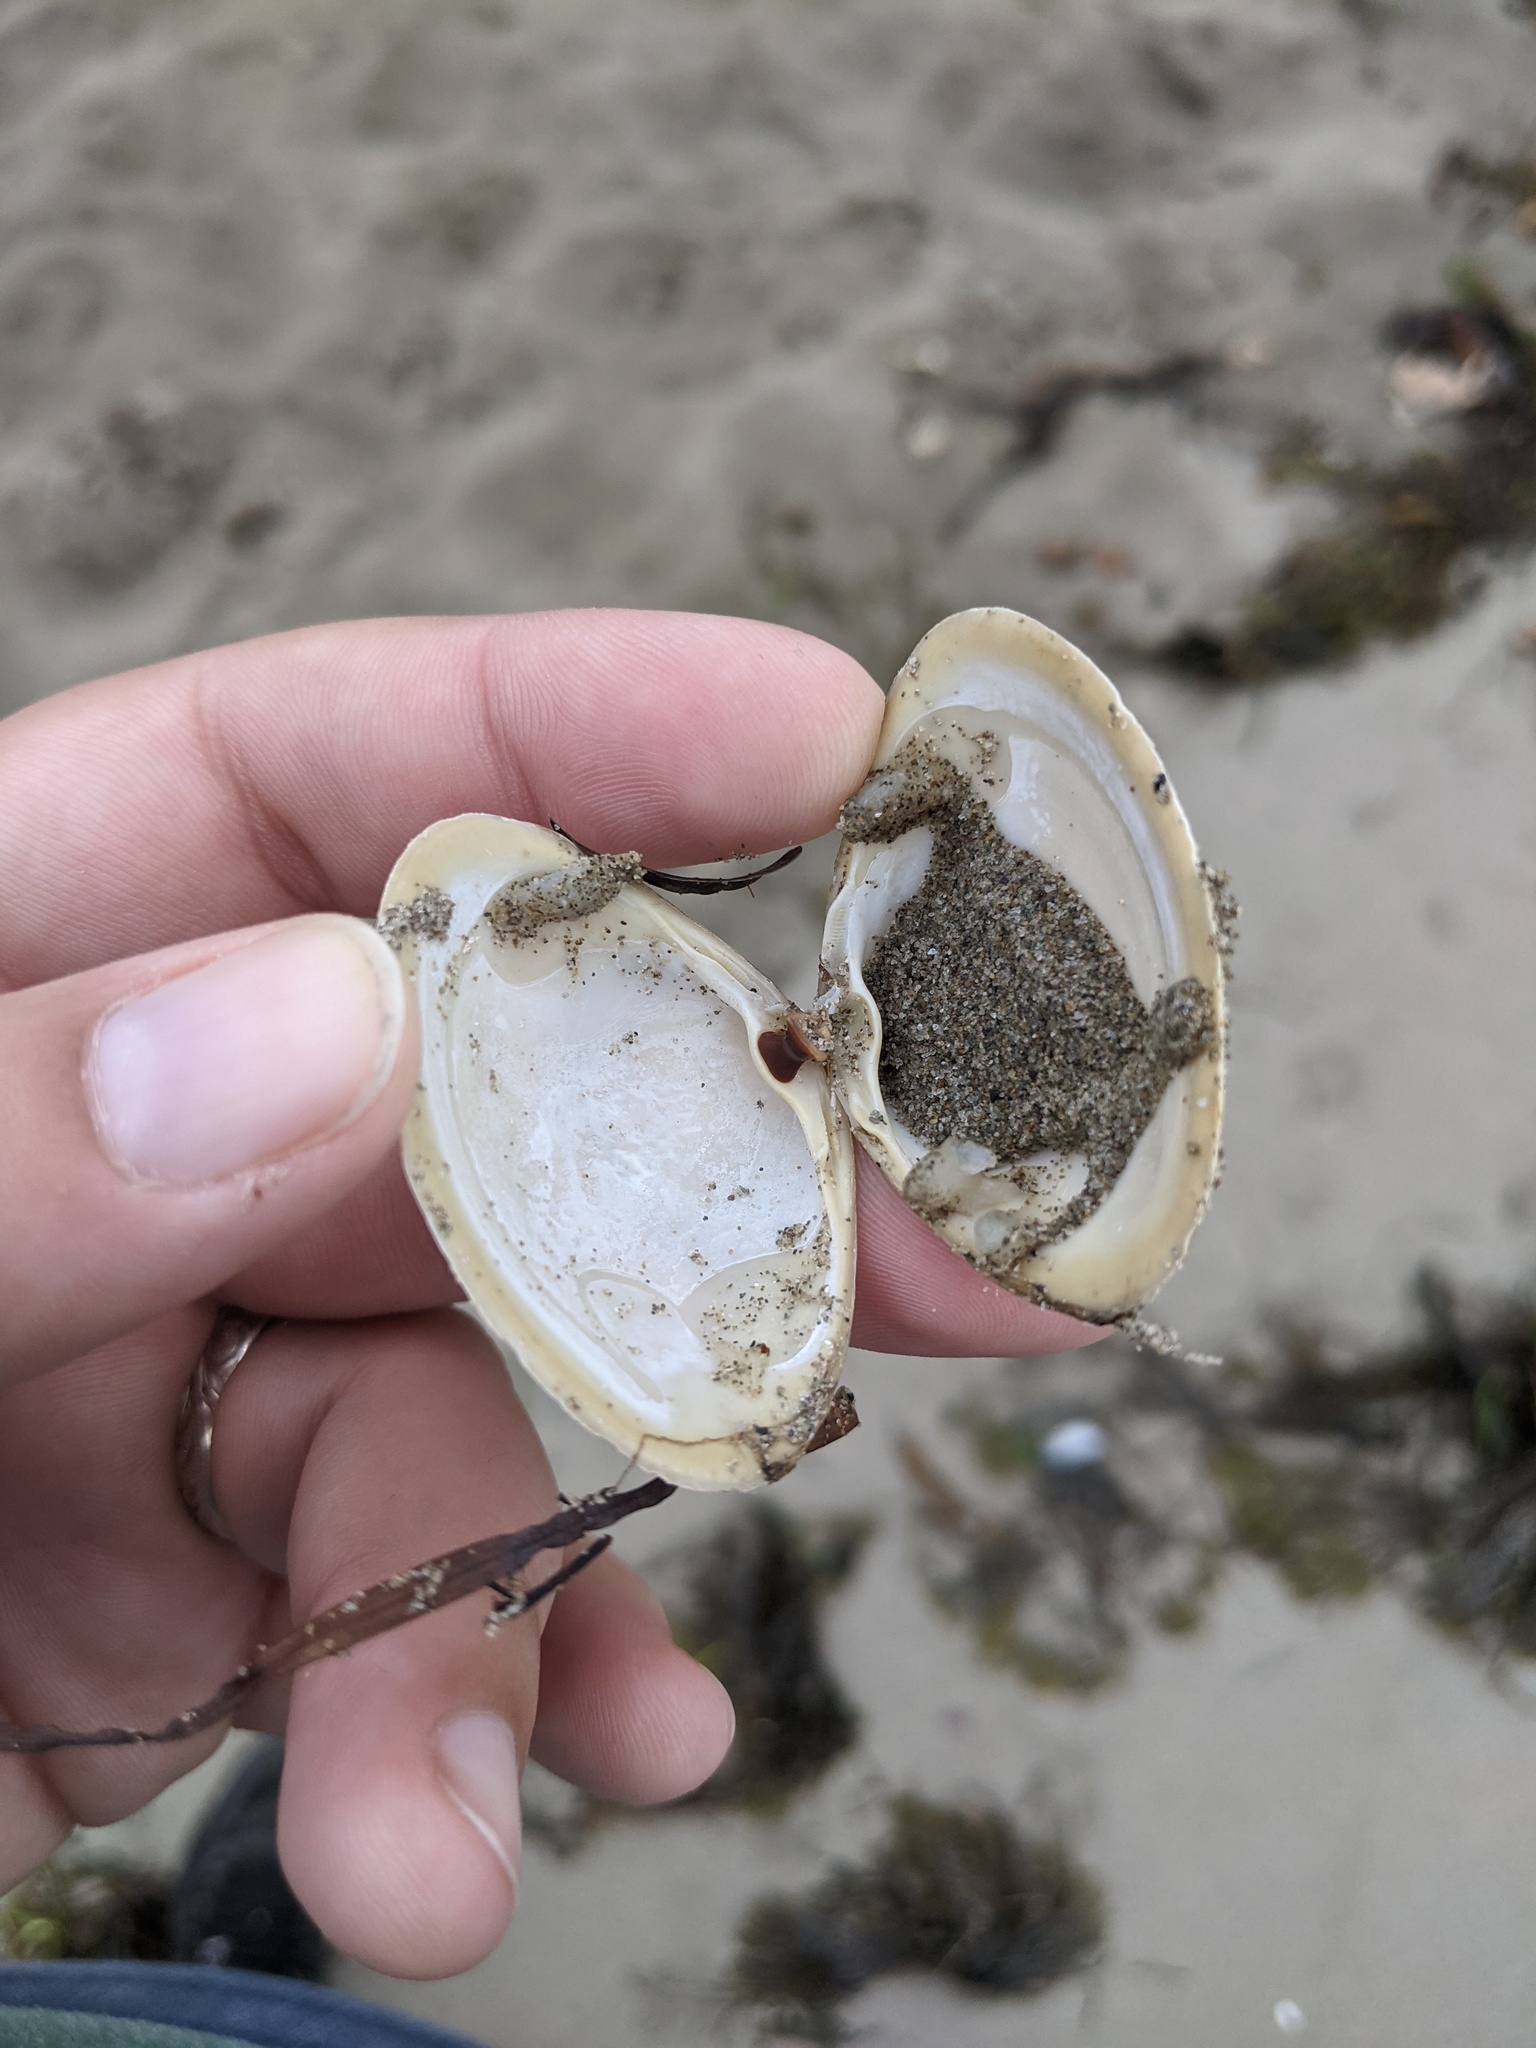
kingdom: Animalia
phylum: Mollusca
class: Bivalvia
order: Venerida
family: Mactridae
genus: Spisula
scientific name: Spisula solidissima
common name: Atlantic surf clam
